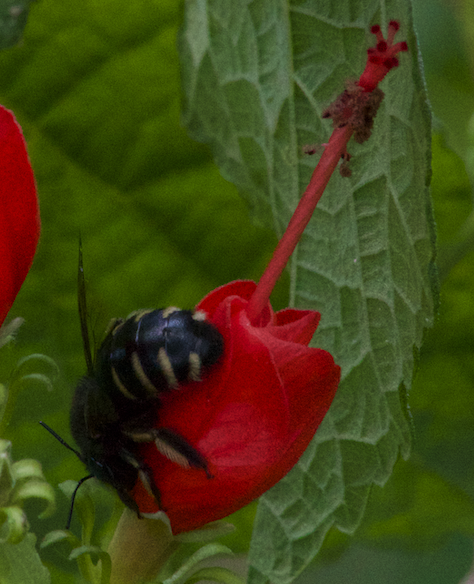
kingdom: Animalia
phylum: Arthropoda
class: Insecta
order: Hymenoptera
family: Apidae
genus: Xylocopa
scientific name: Xylocopa tabaniformis
